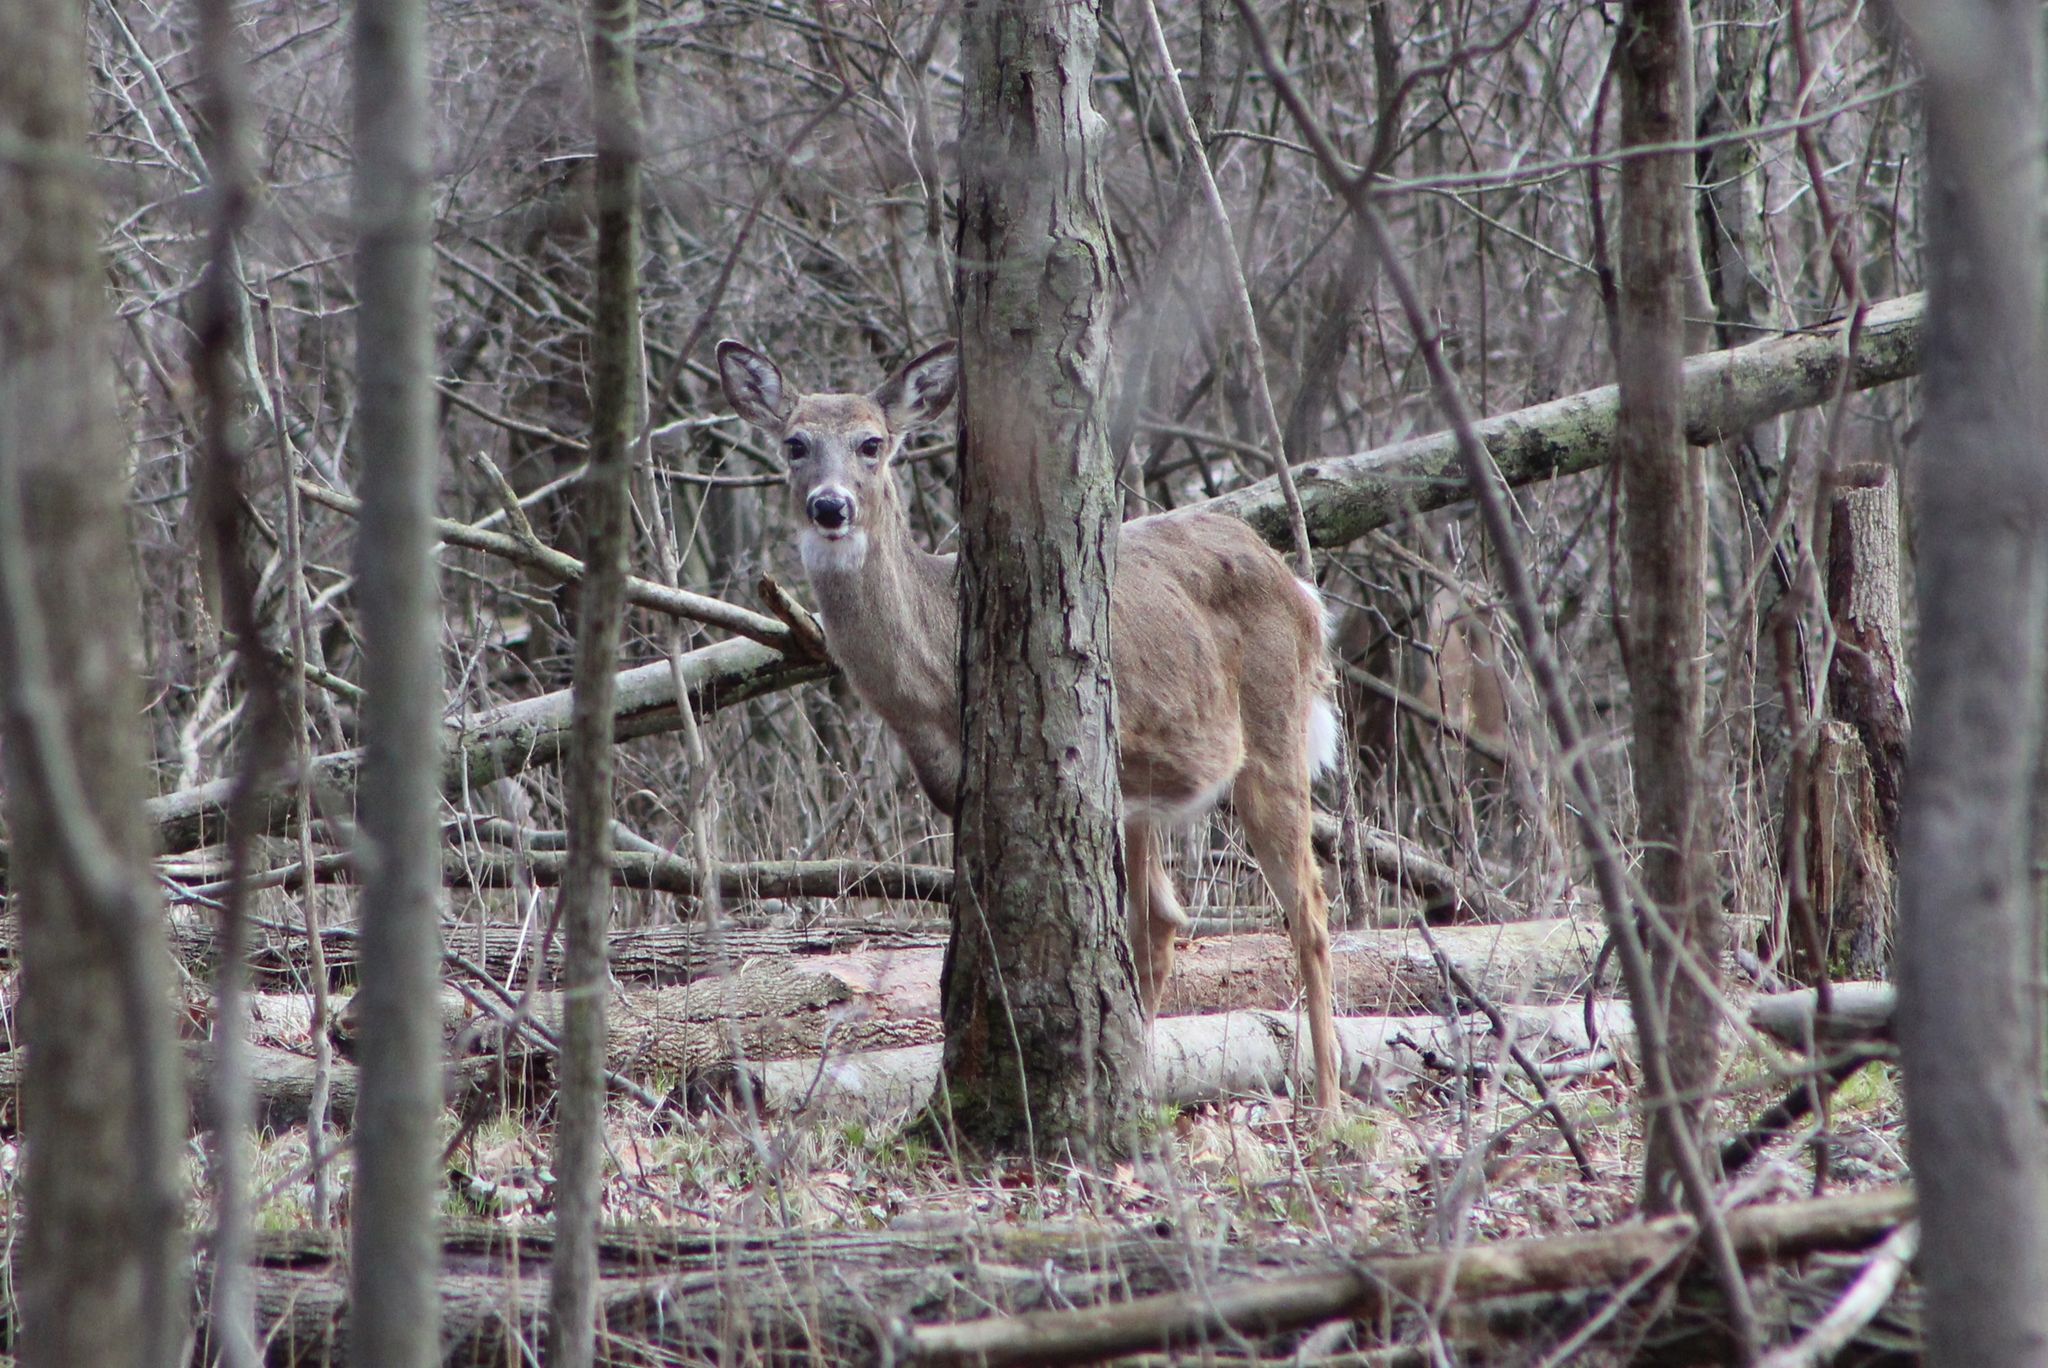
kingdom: Animalia
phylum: Chordata
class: Mammalia
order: Artiodactyla
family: Cervidae
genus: Odocoileus
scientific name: Odocoileus virginianus
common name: White-tailed deer
